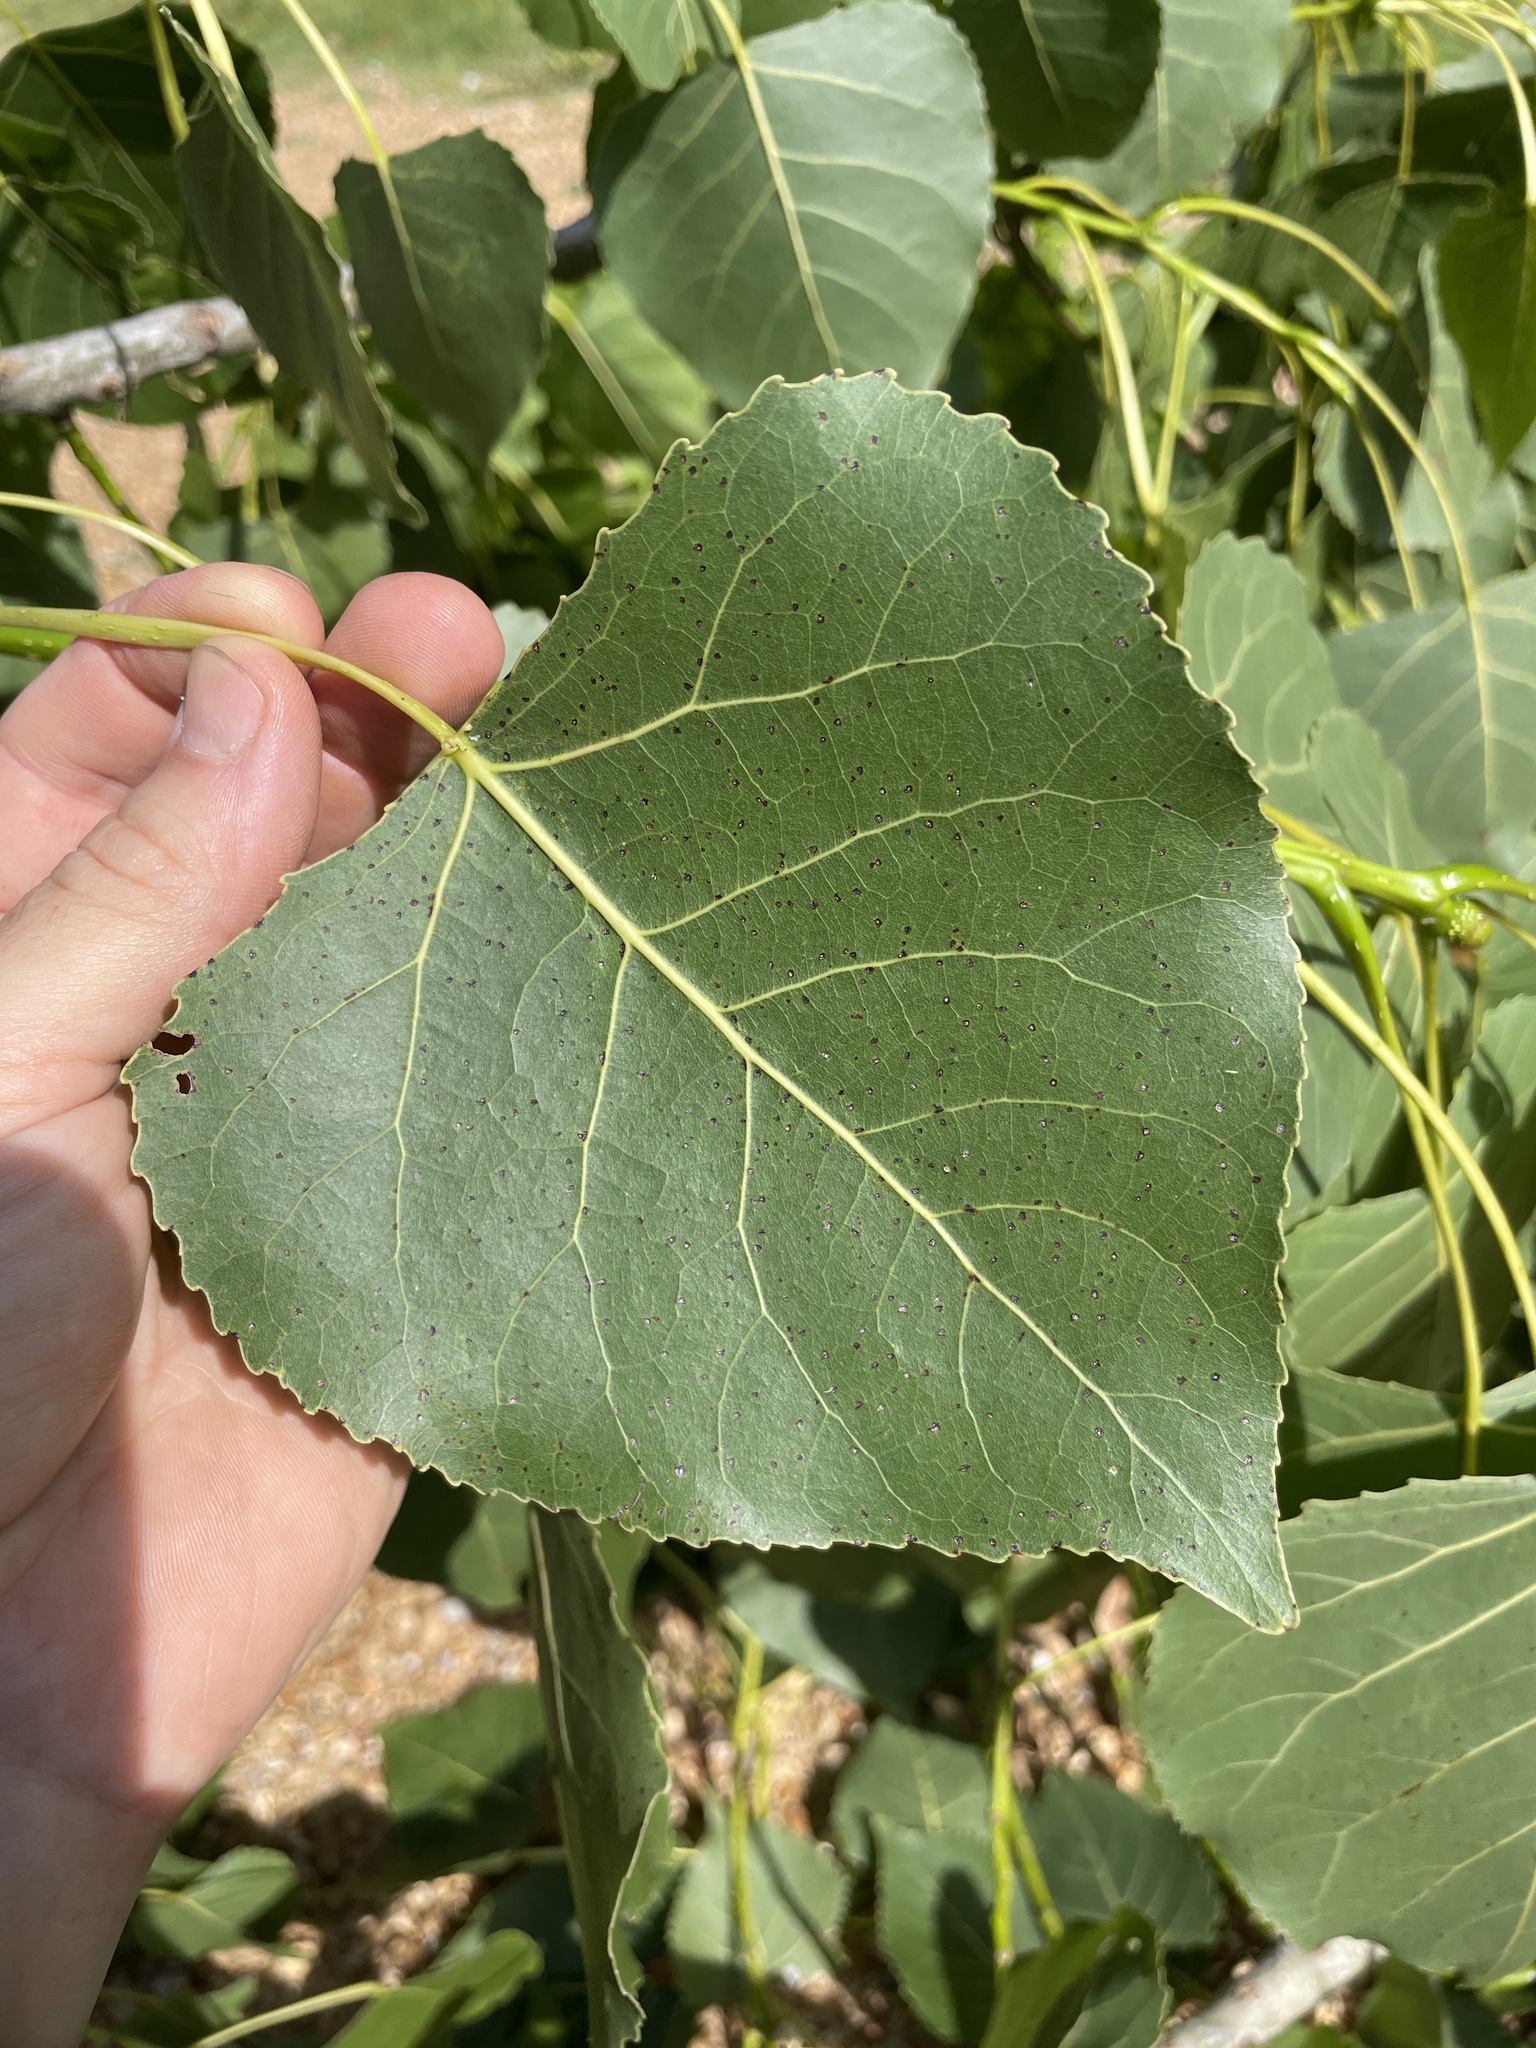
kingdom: Plantae
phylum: Tracheophyta
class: Magnoliopsida
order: Malpighiales
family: Salicaceae
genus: Populus
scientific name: Populus deltoides
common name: Eastern cottonwood
